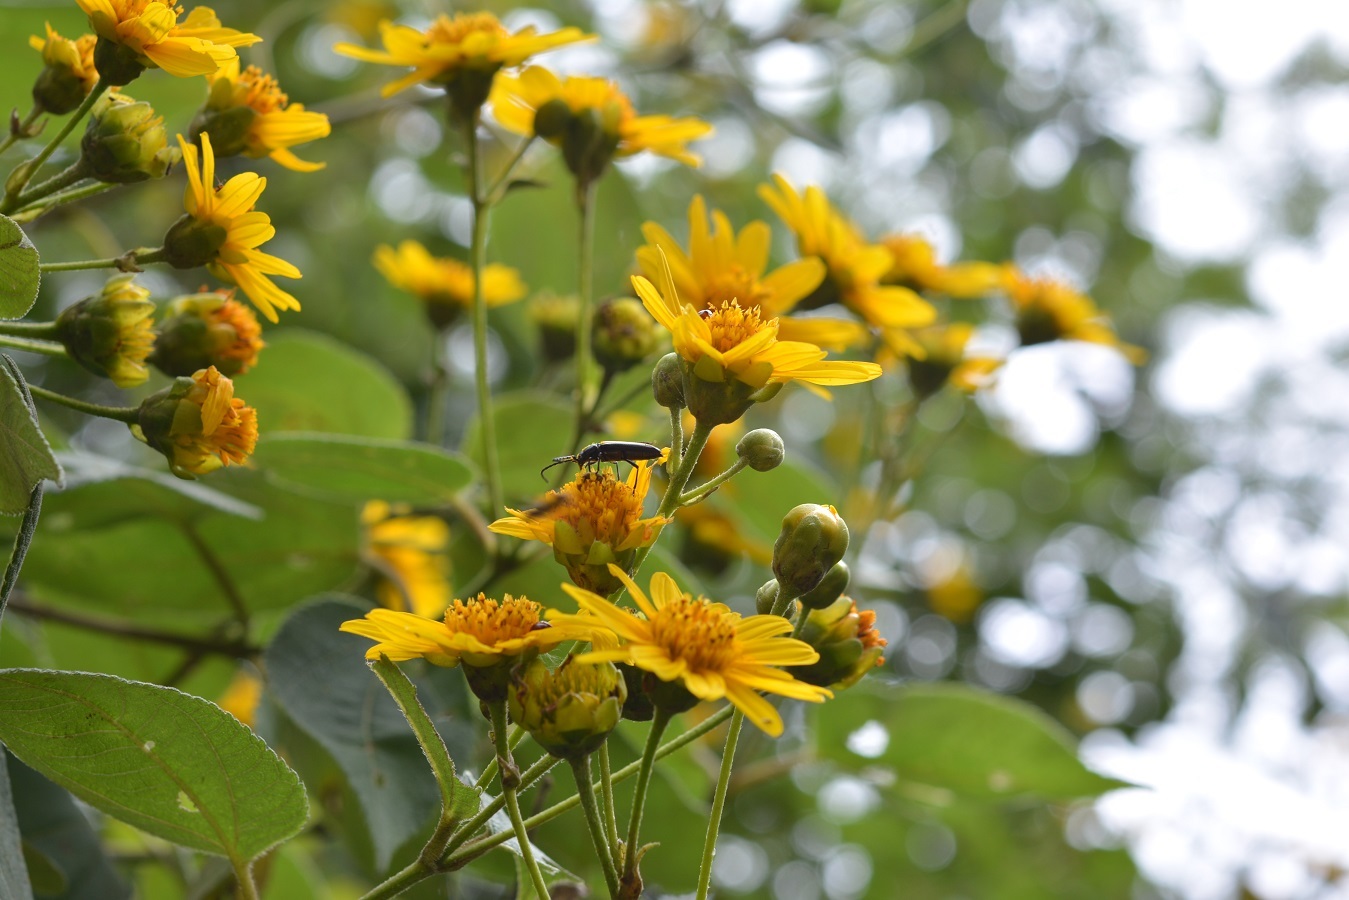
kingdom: Plantae
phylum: Tracheophyta
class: Magnoliopsida
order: Asterales
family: Asteraceae
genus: Lasianthaea
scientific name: Lasianthaea fruticosa
